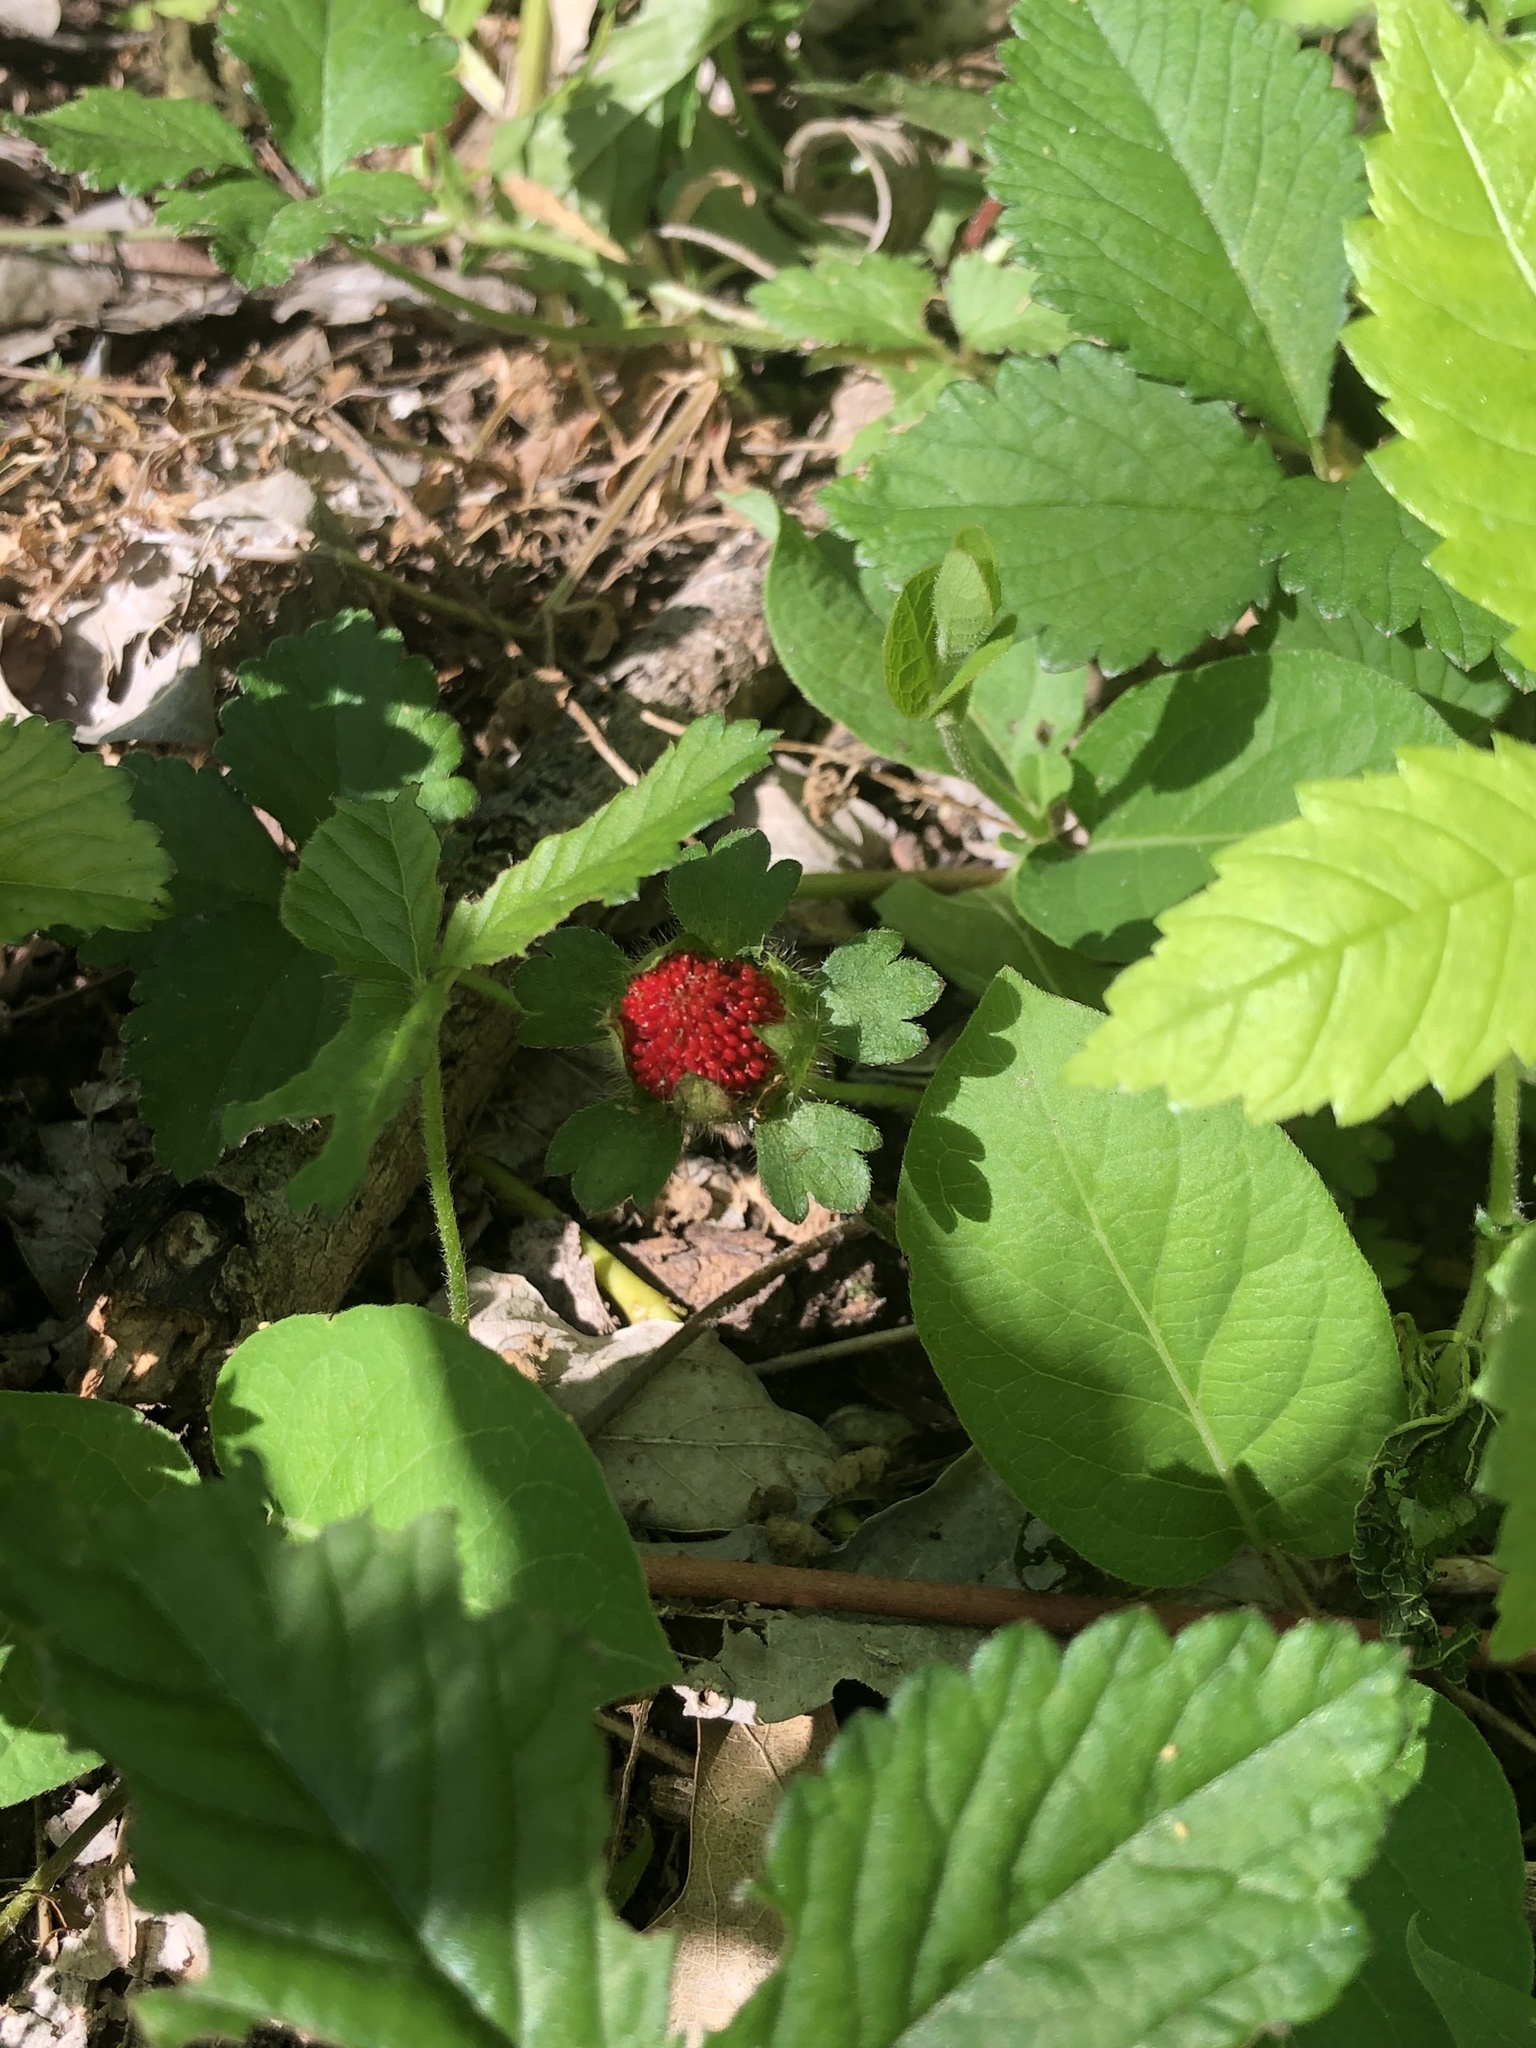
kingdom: Plantae
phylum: Tracheophyta
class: Magnoliopsida
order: Rosales
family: Rosaceae
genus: Potentilla
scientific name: Potentilla indica
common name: Yellow-flowered strawberry
